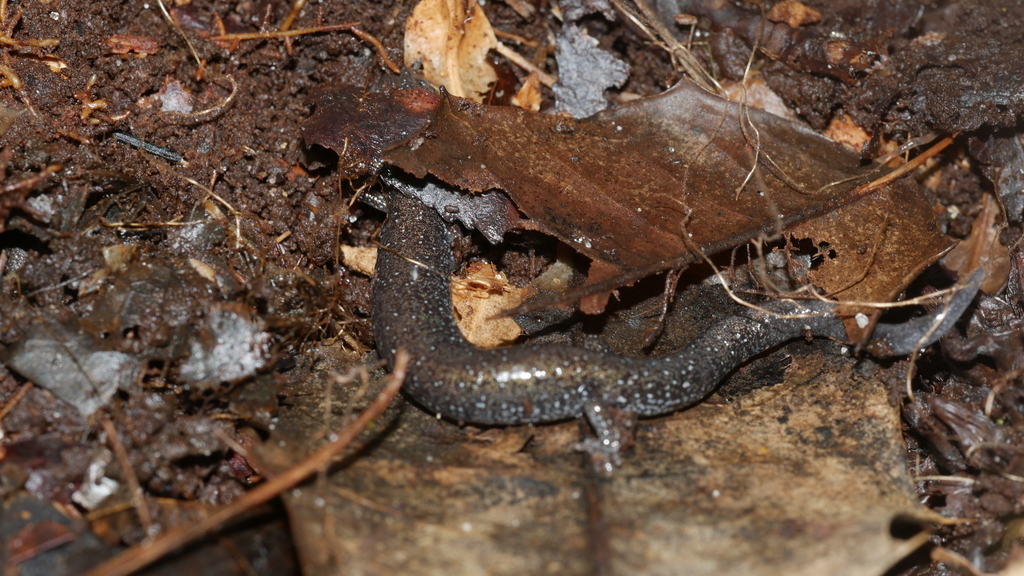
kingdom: Animalia
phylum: Chordata
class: Amphibia
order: Caudata
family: Plethodontidae
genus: Plethodon
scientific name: Plethodon cinereus
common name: Redback salamander
